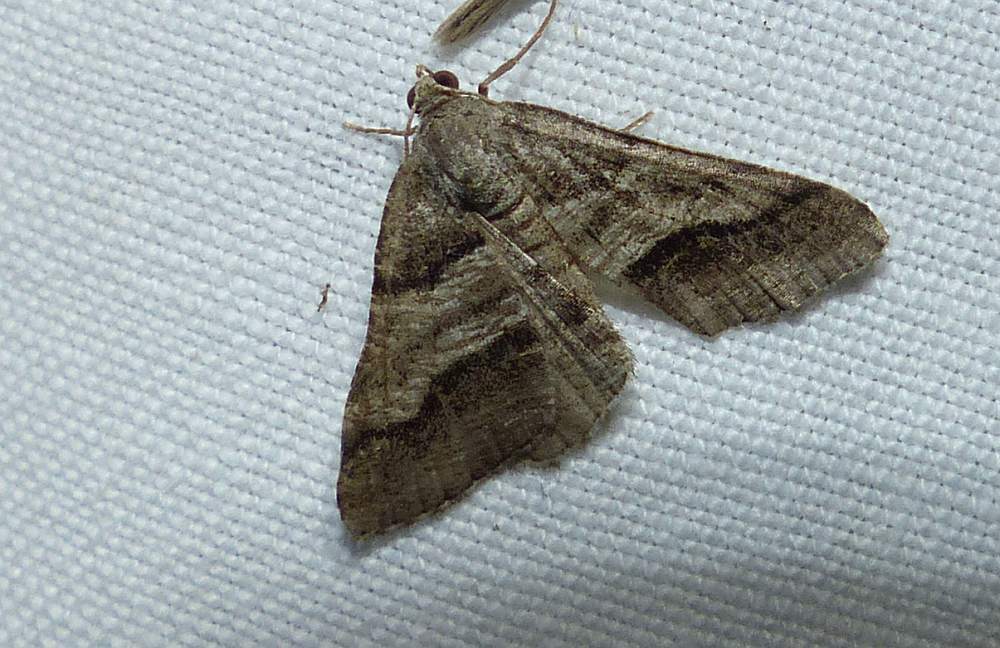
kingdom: Animalia
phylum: Arthropoda
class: Insecta
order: Lepidoptera
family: Geometridae
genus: Digrammia
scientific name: Digrammia continuata
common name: Curve-lined angle
